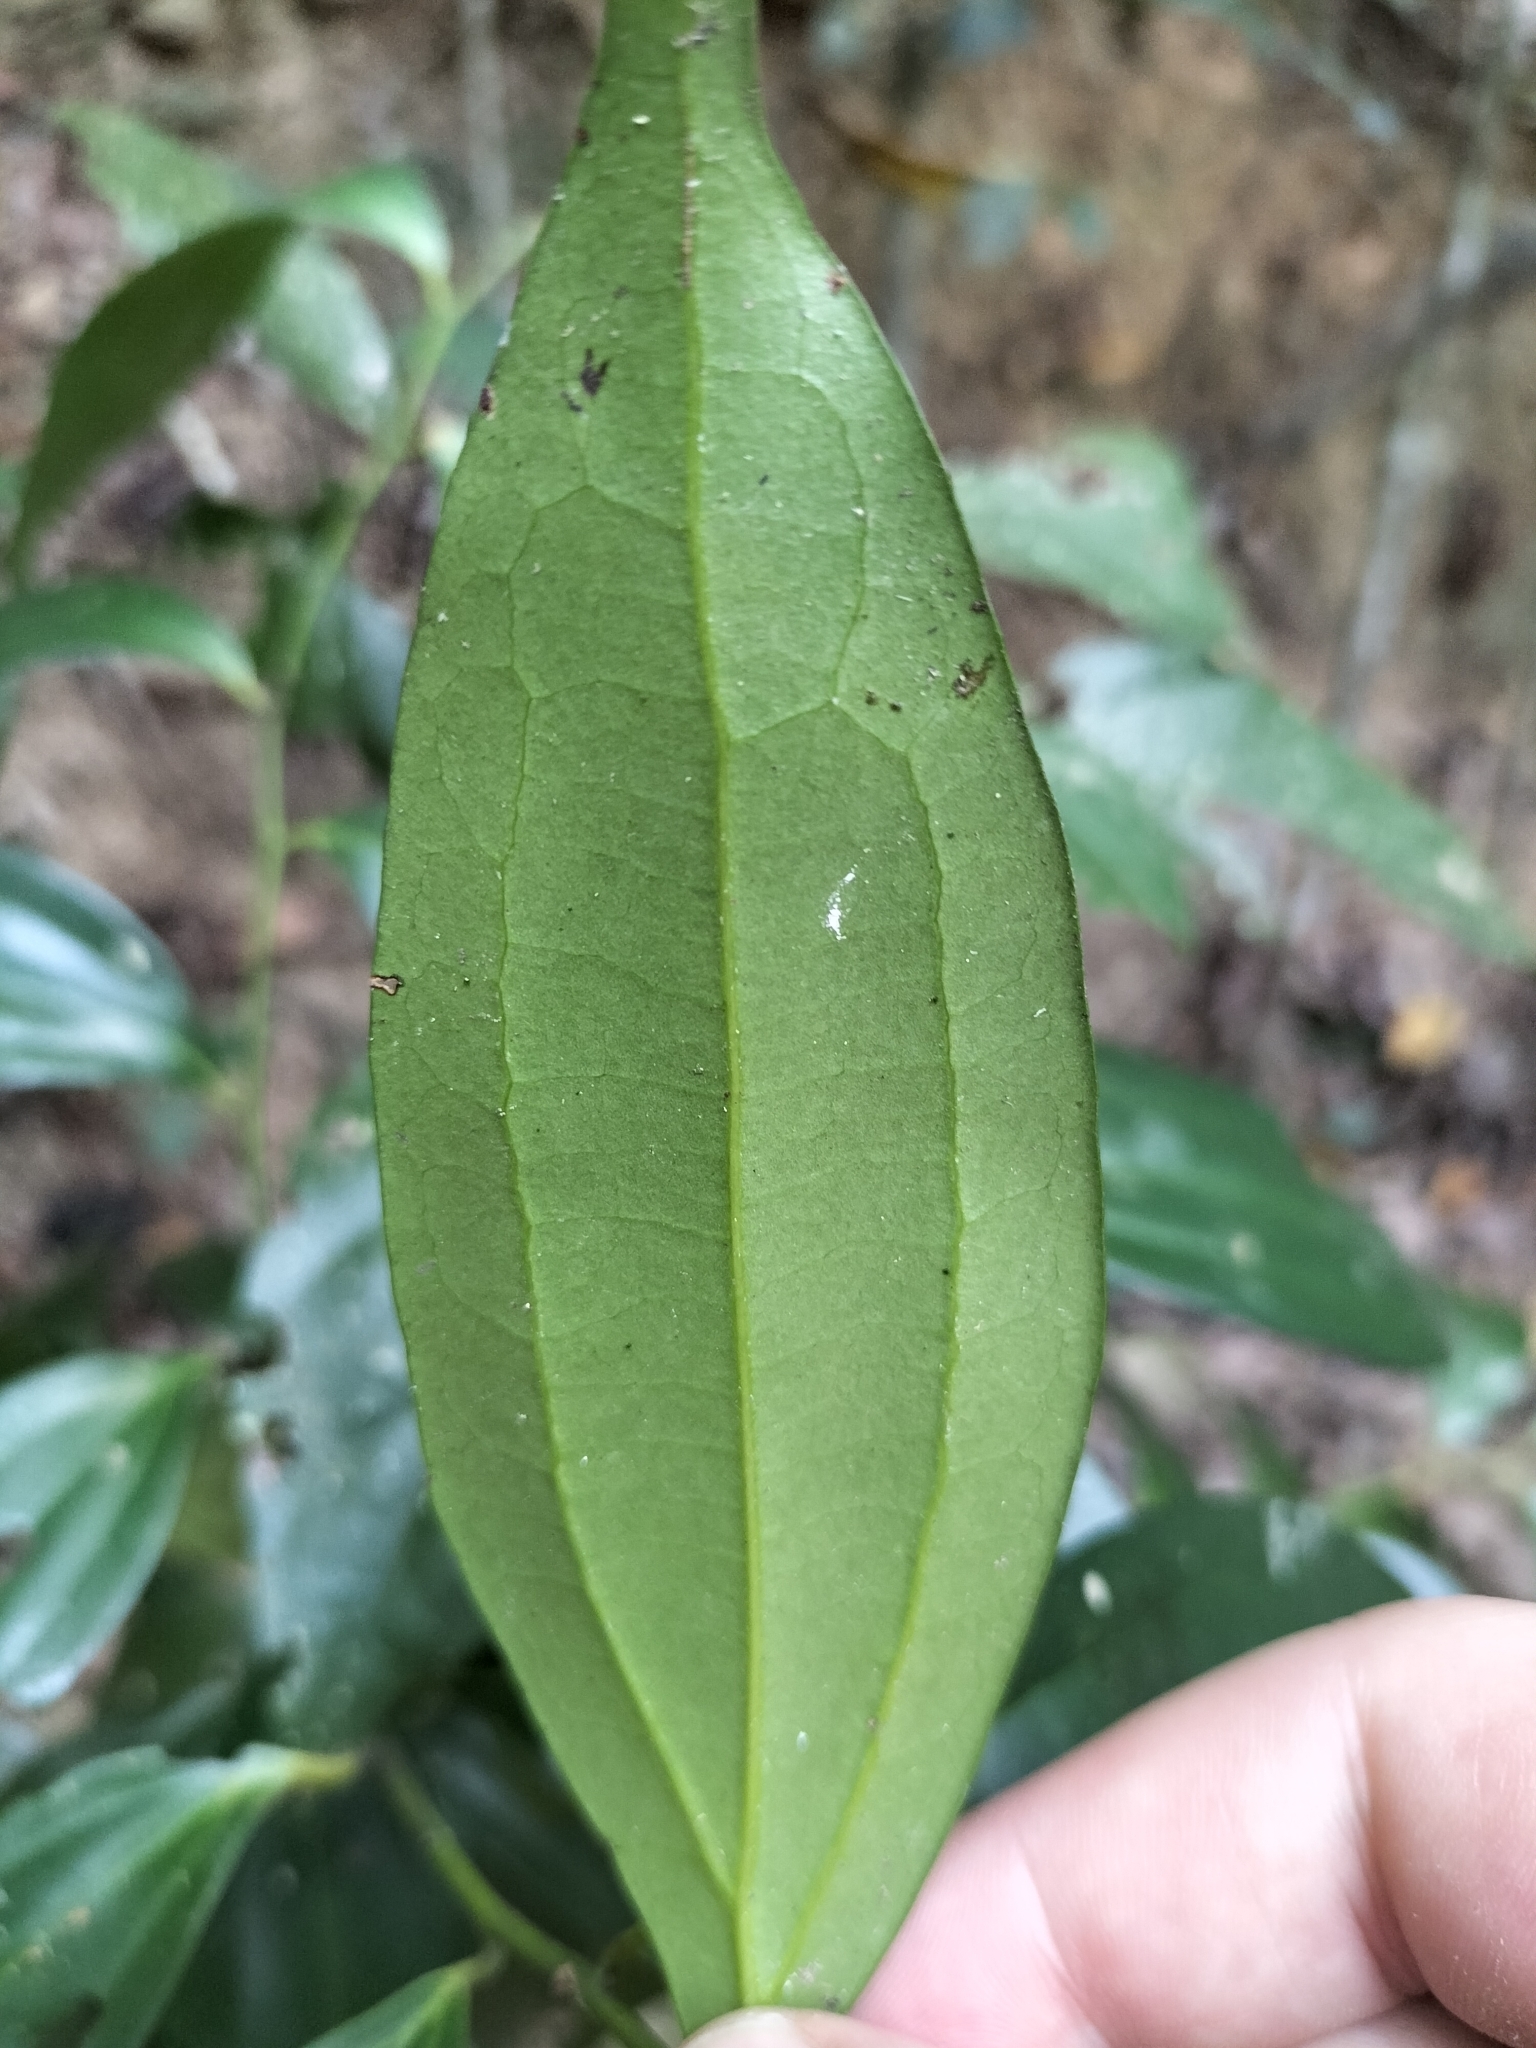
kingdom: Plantae
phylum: Tracheophyta
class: Magnoliopsida
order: Laurales
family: Lauraceae
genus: Cryptocarya
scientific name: Cryptocarya laevigata
